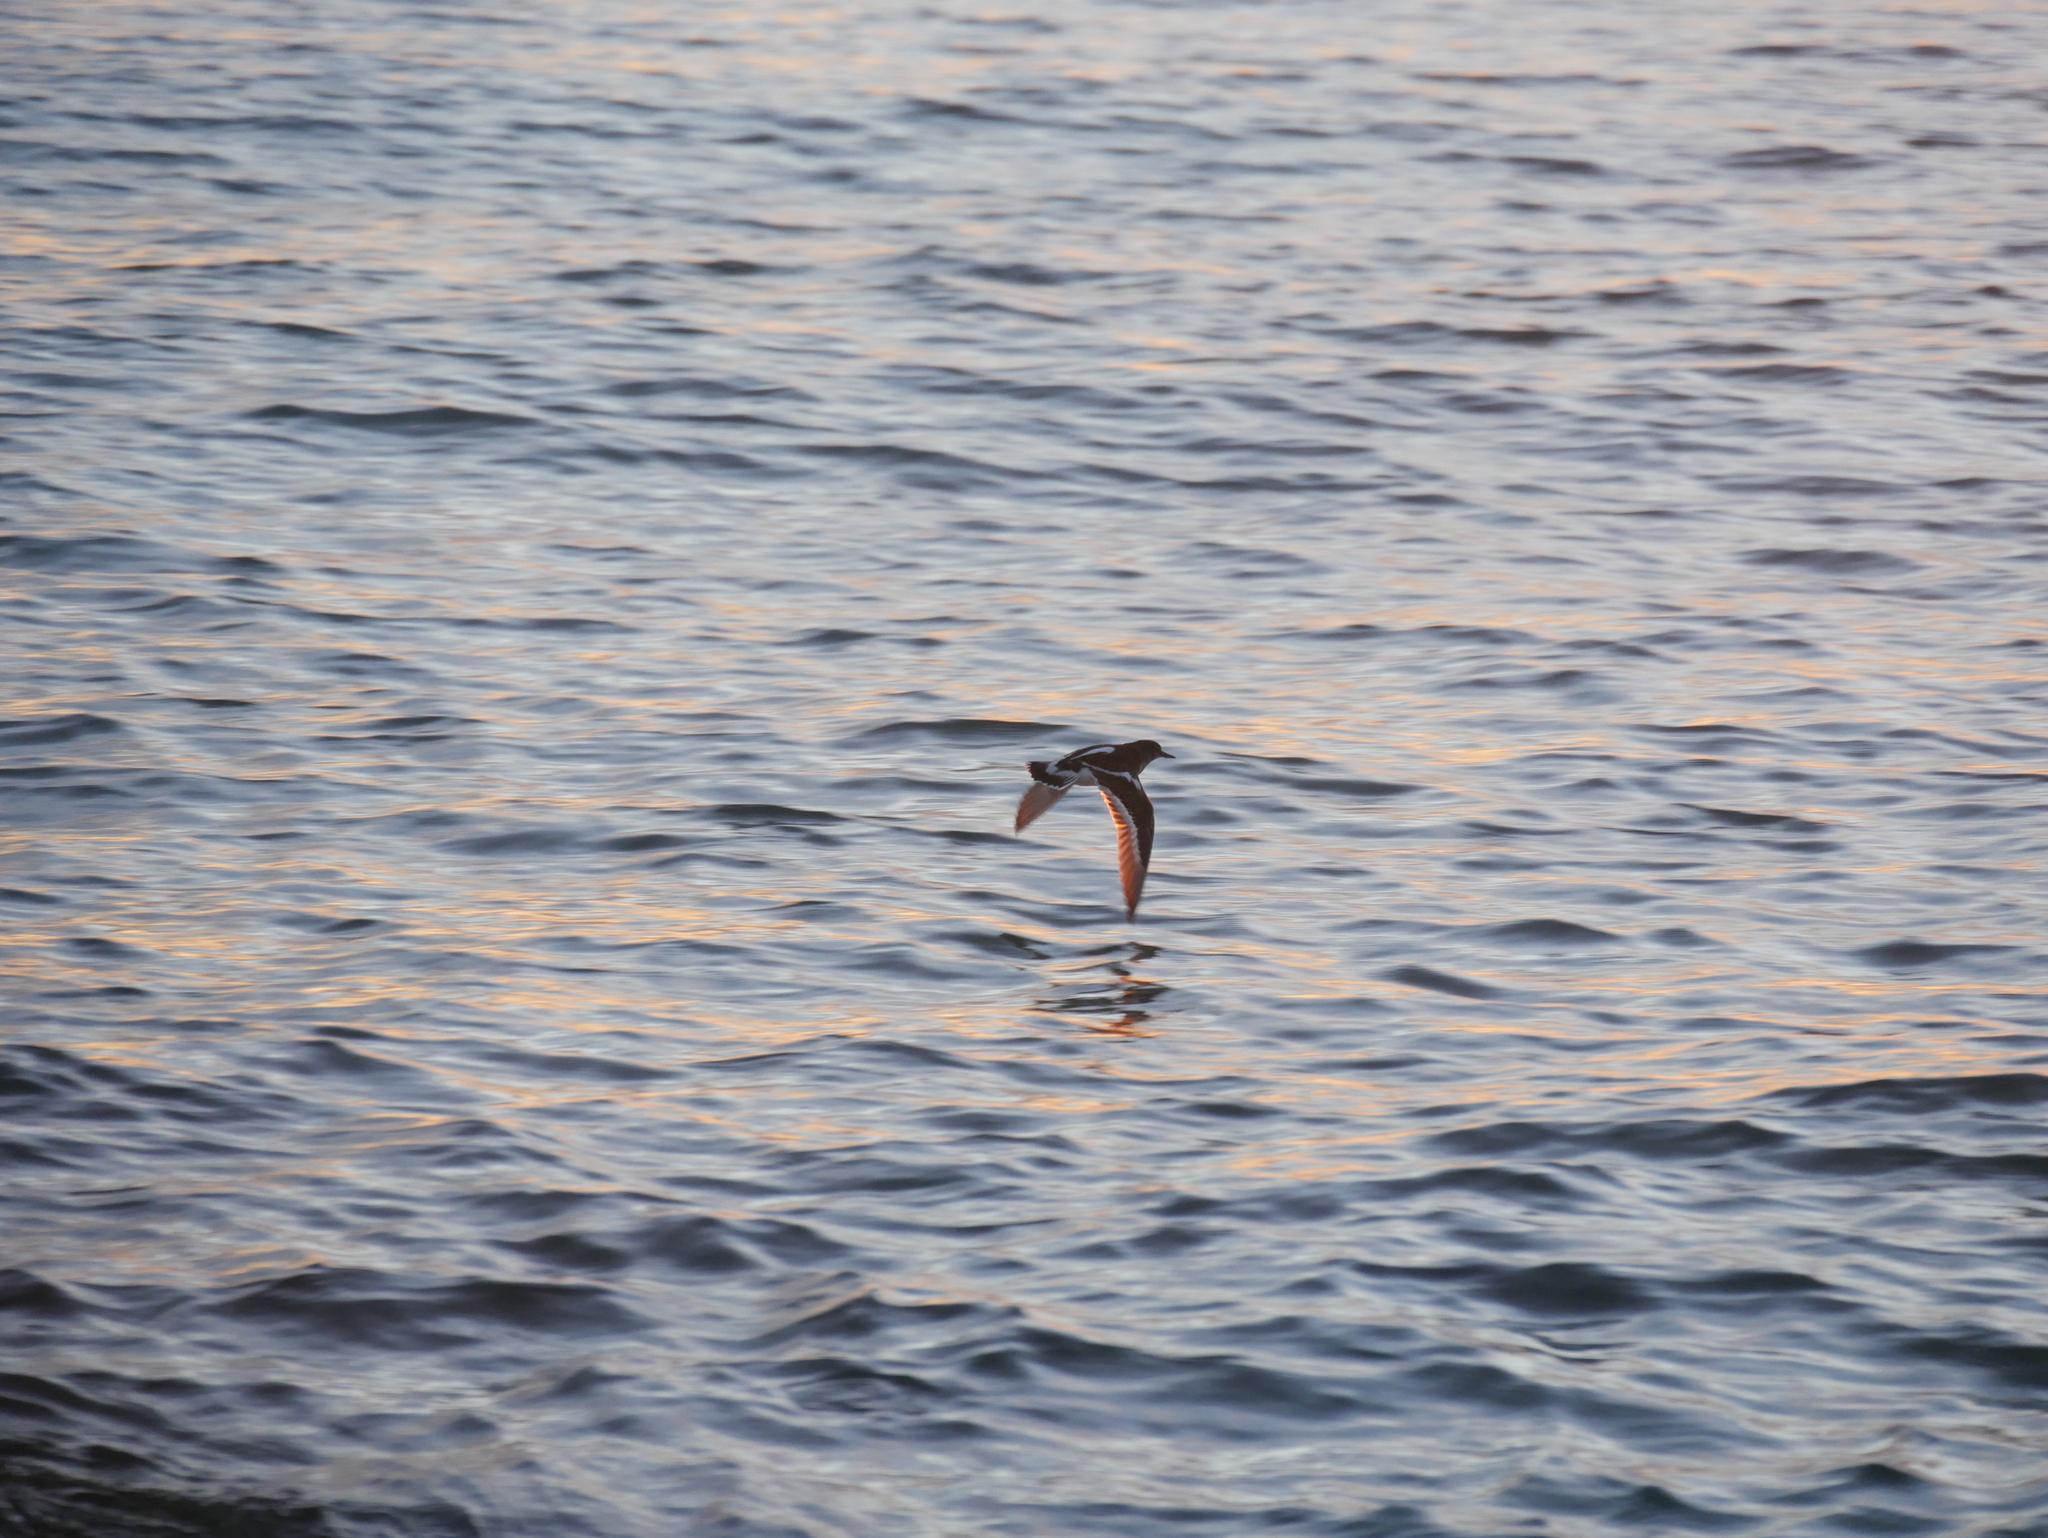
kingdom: Animalia
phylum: Chordata
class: Aves
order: Charadriiformes
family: Scolopacidae
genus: Arenaria
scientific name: Arenaria interpres
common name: Ruddy turnstone
